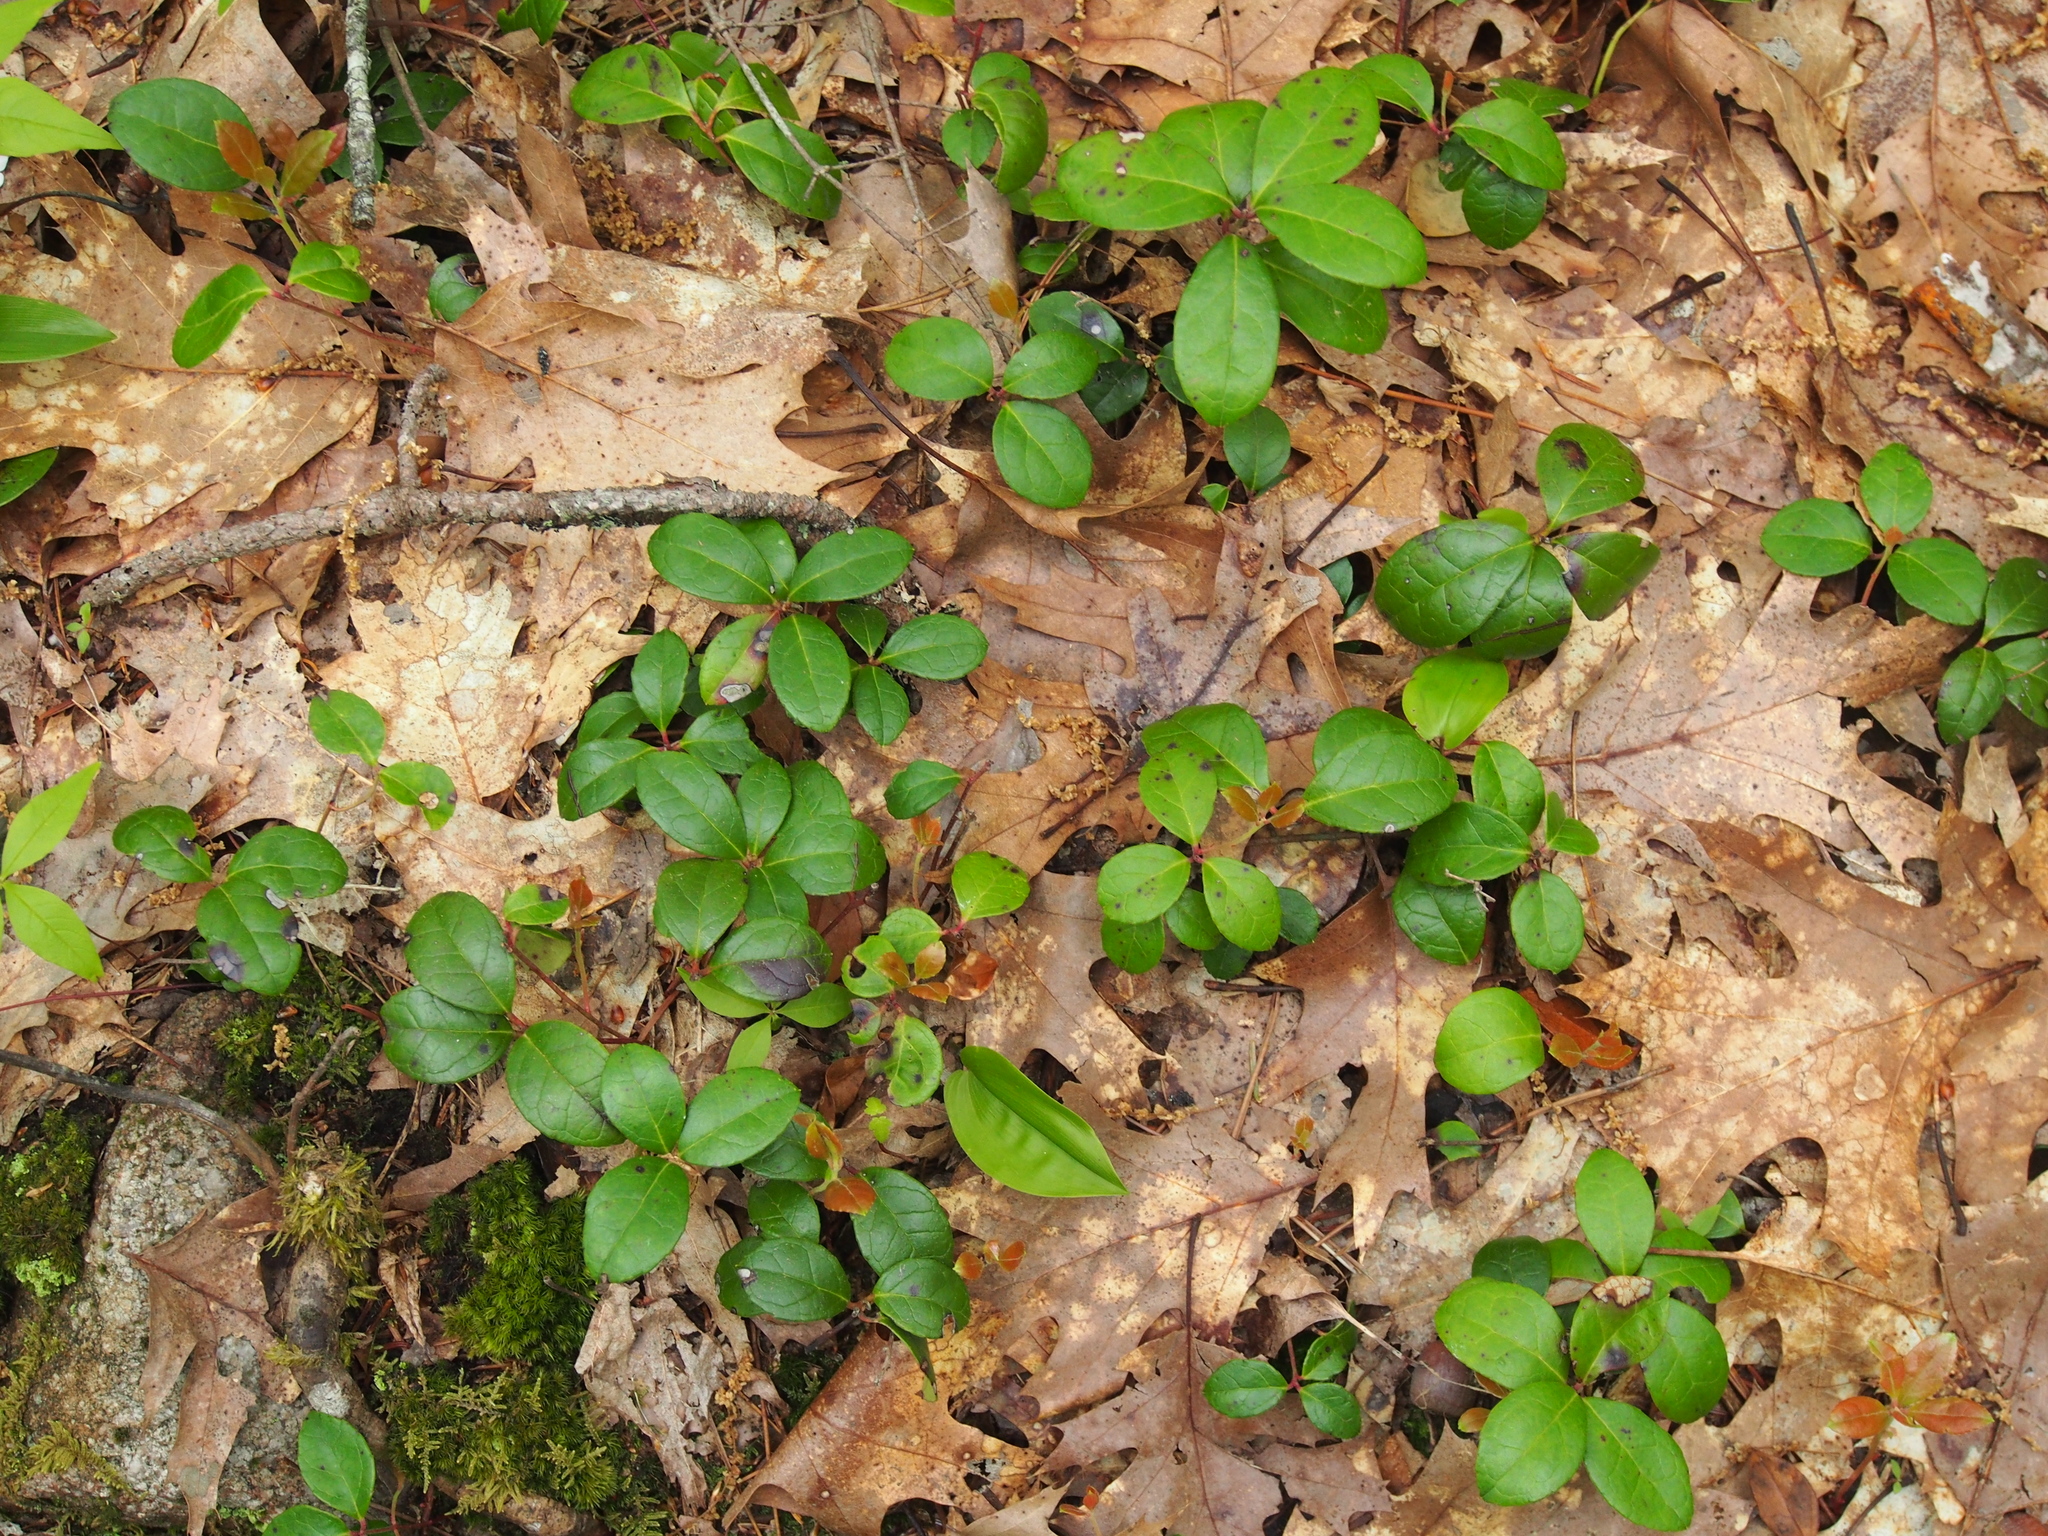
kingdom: Plantae
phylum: Tracheophyta
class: Magnoliopsida
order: Ericales
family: Ericaceae
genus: Gaultheria
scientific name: Gaultheria procumbens
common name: Checkerberry
